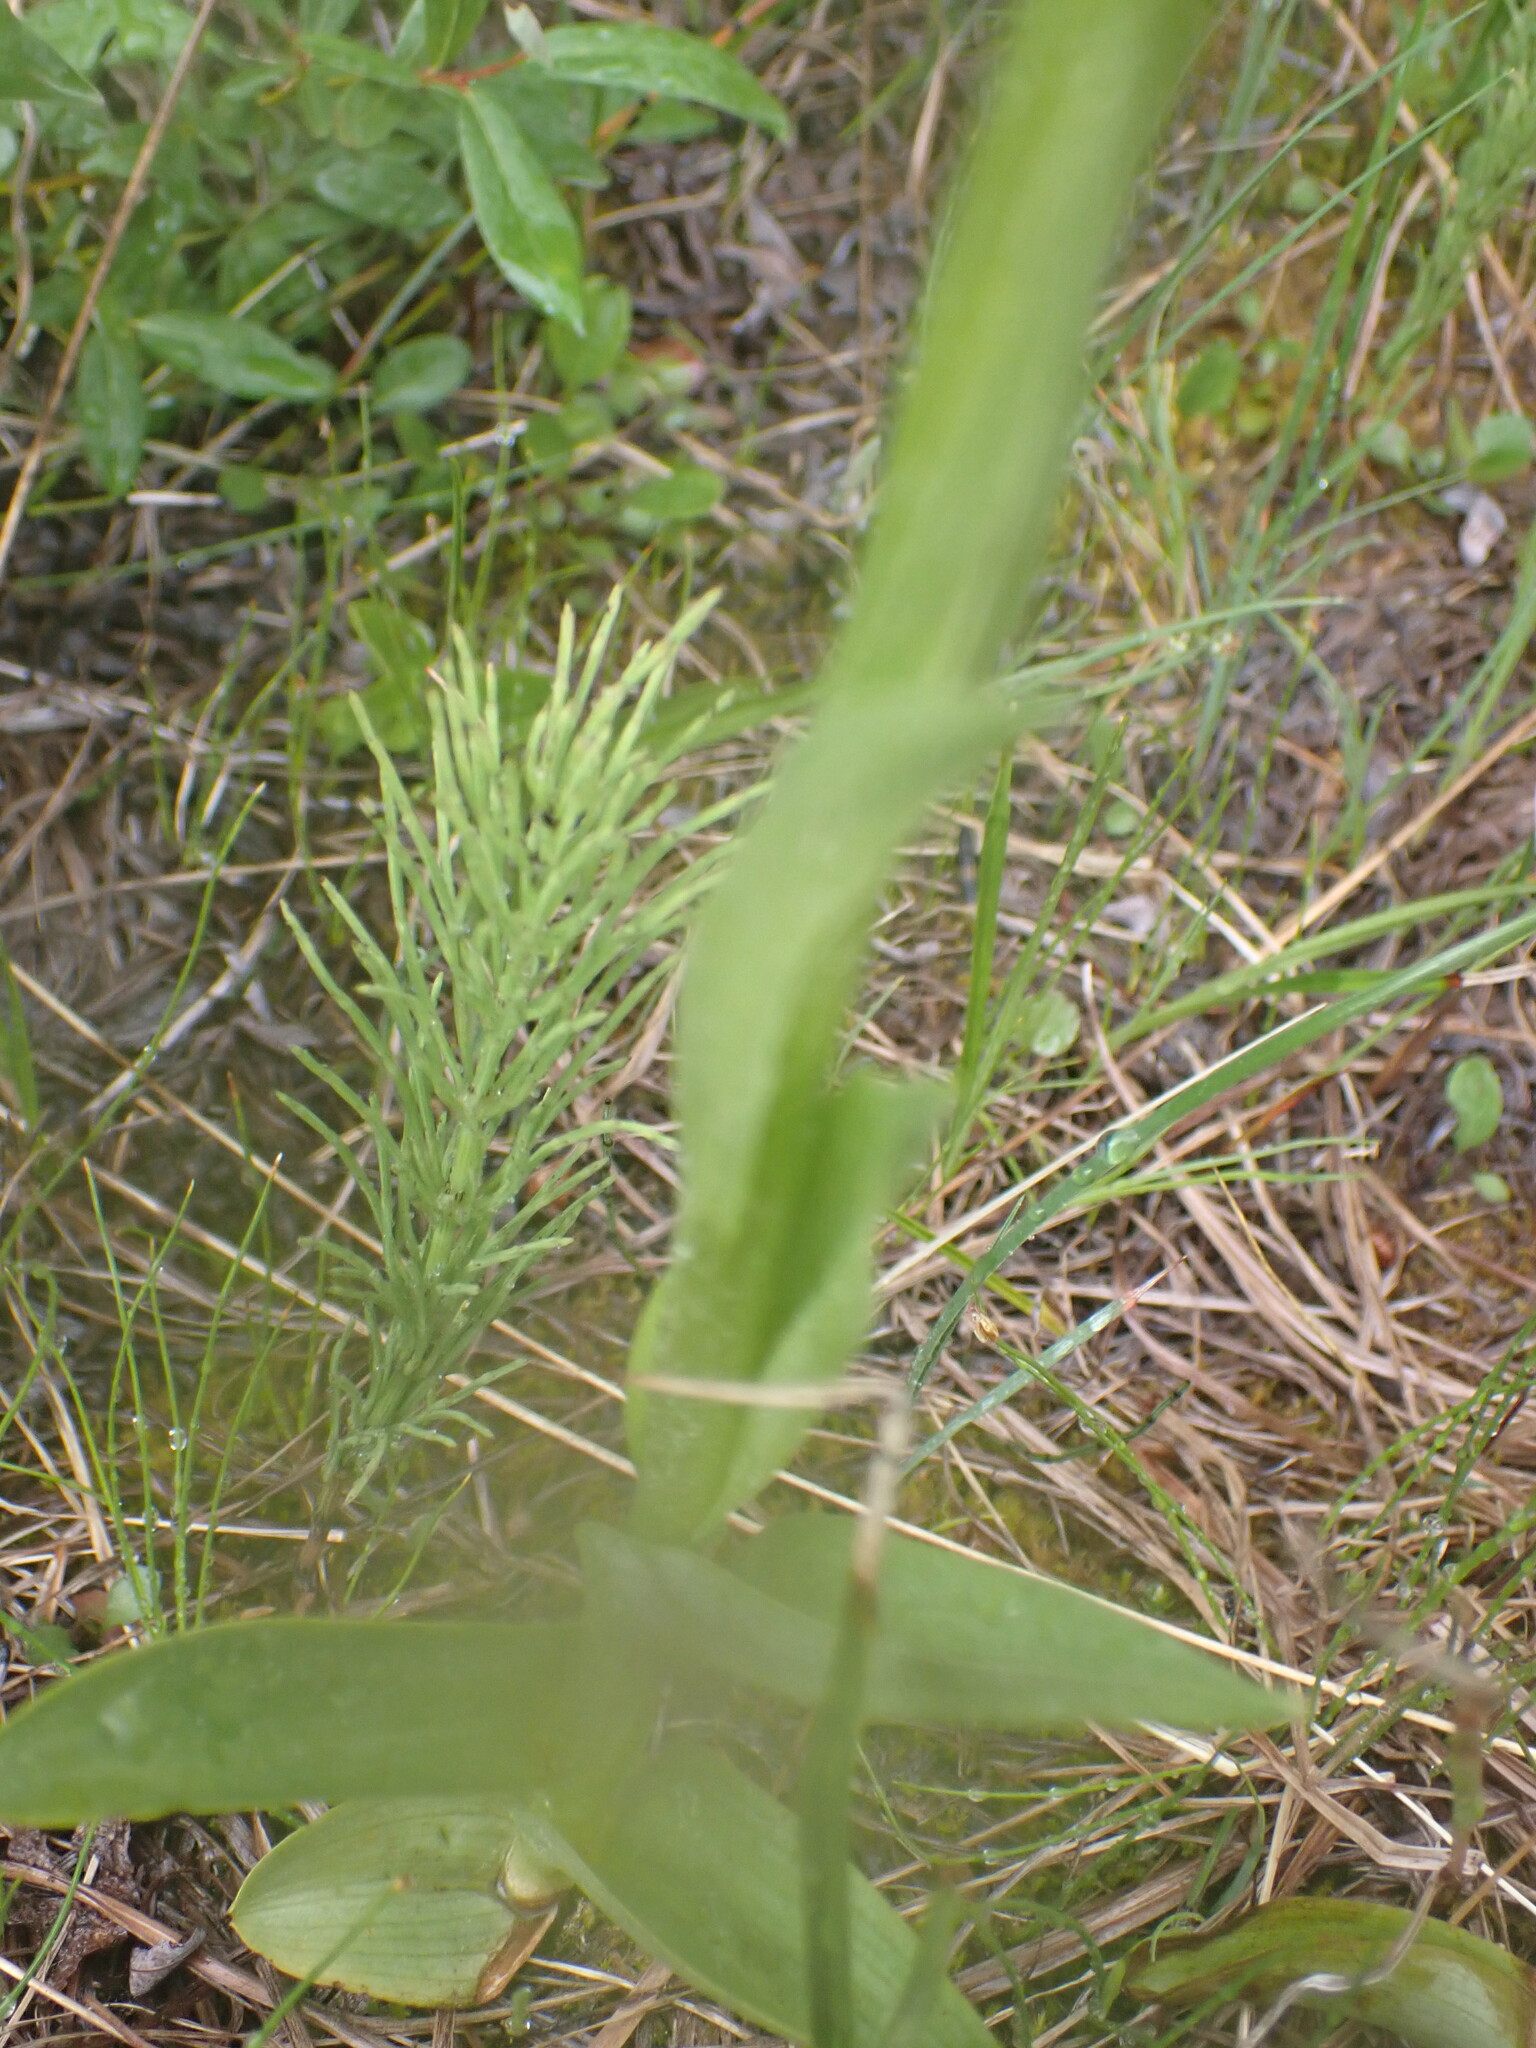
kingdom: Plantae
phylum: Tracheophyta
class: Liliopsida
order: Asparagales
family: Orchidaceae
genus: Platanthera
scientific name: Platanthera huronensis
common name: Fragrant green orchid
